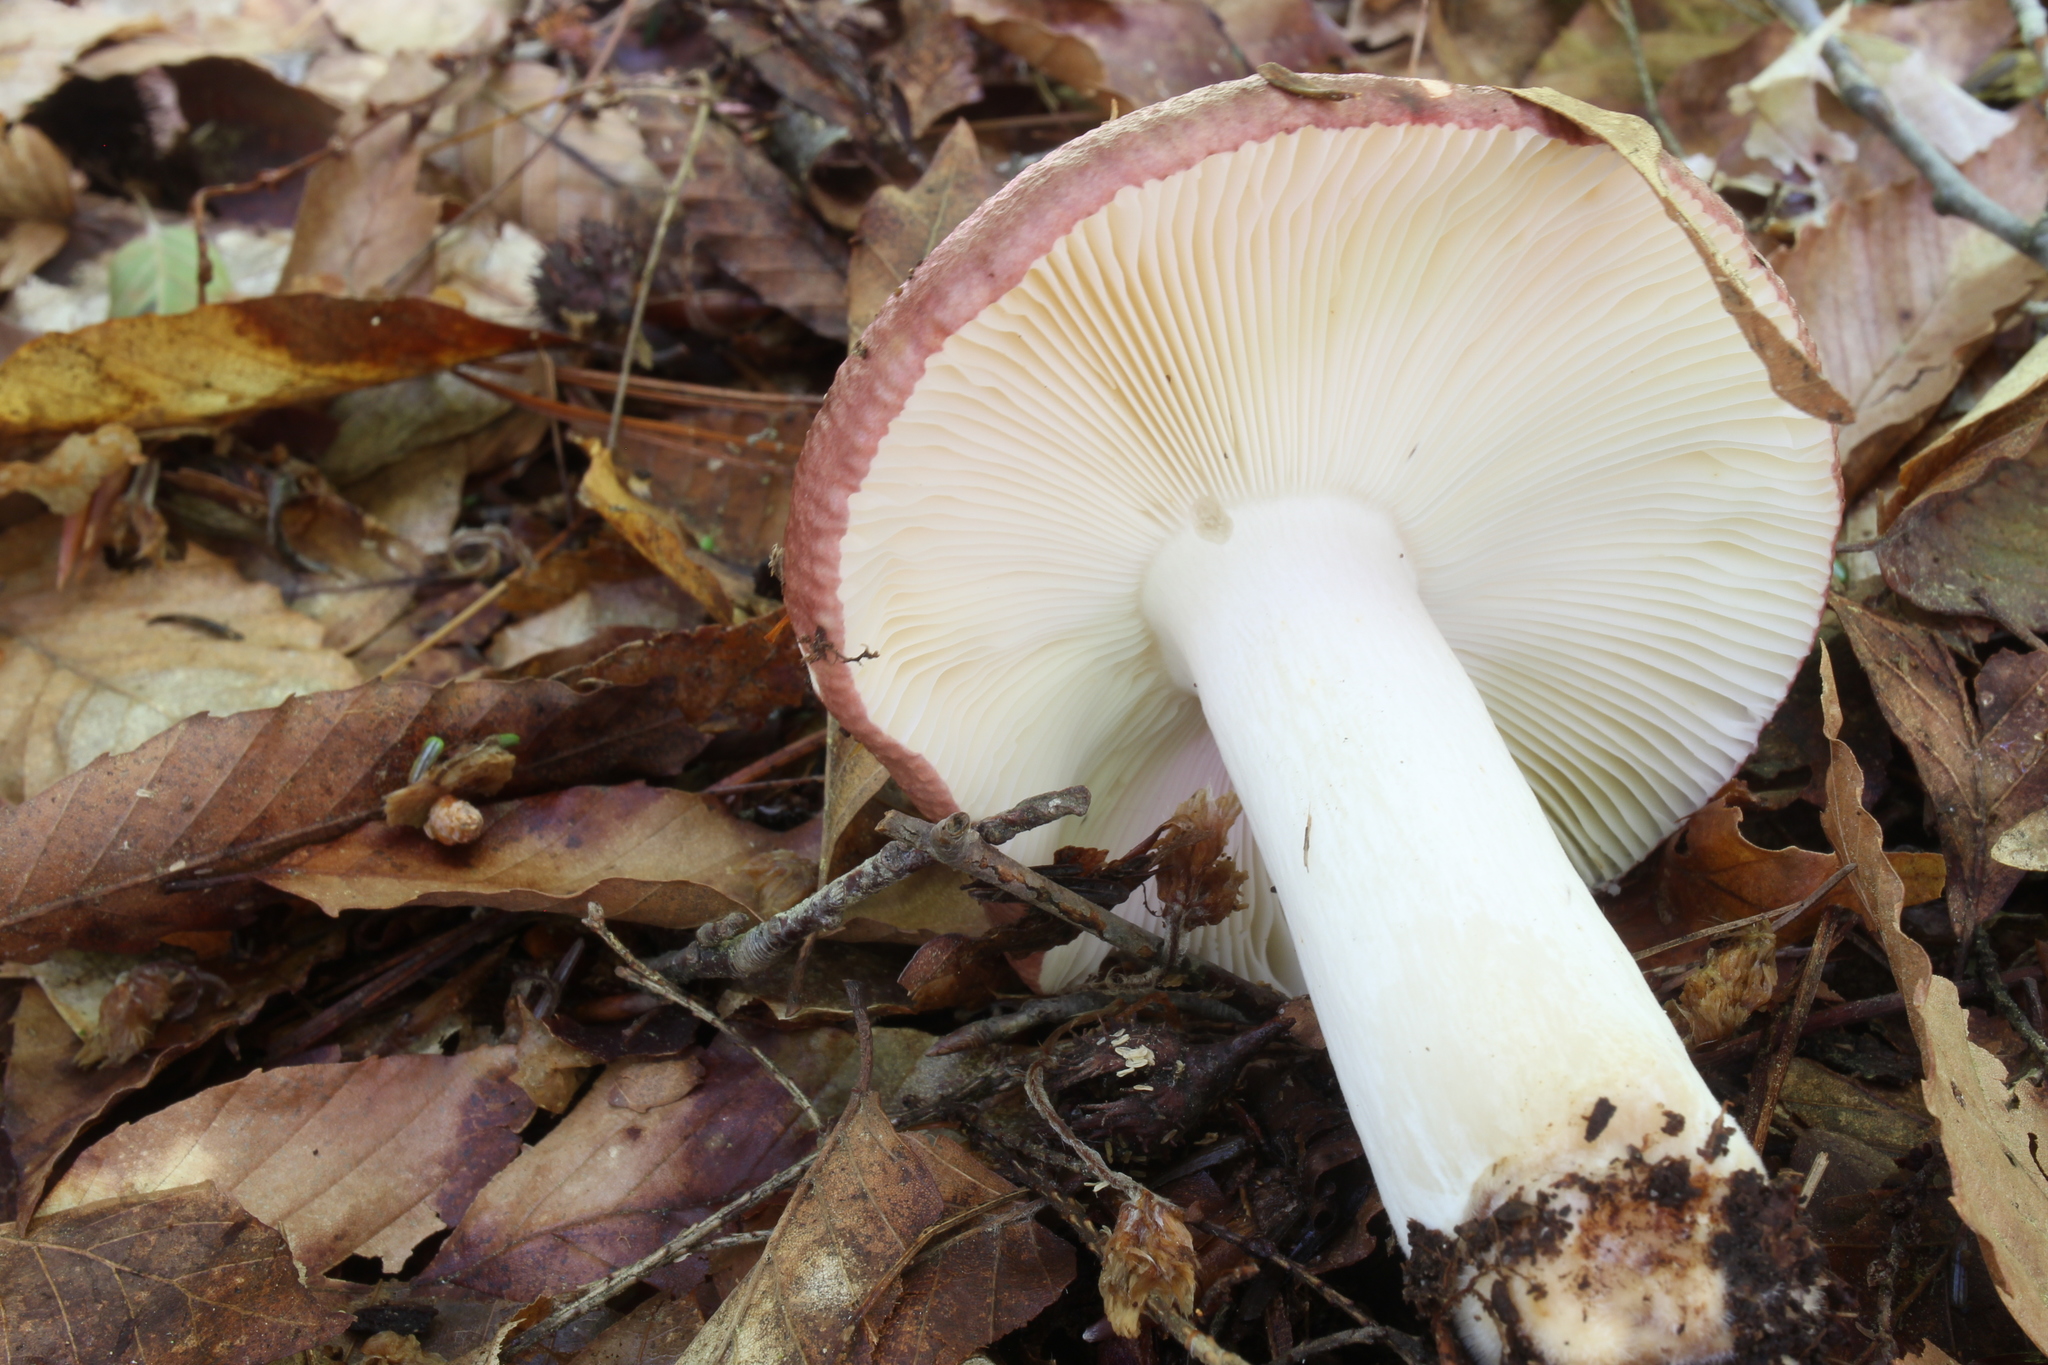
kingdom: Fungi
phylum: Basidiomycota
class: Agaricomycetes
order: Russulales
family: Russulaceae
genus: Russula
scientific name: Russula vinacea
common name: Blackish-red russula
